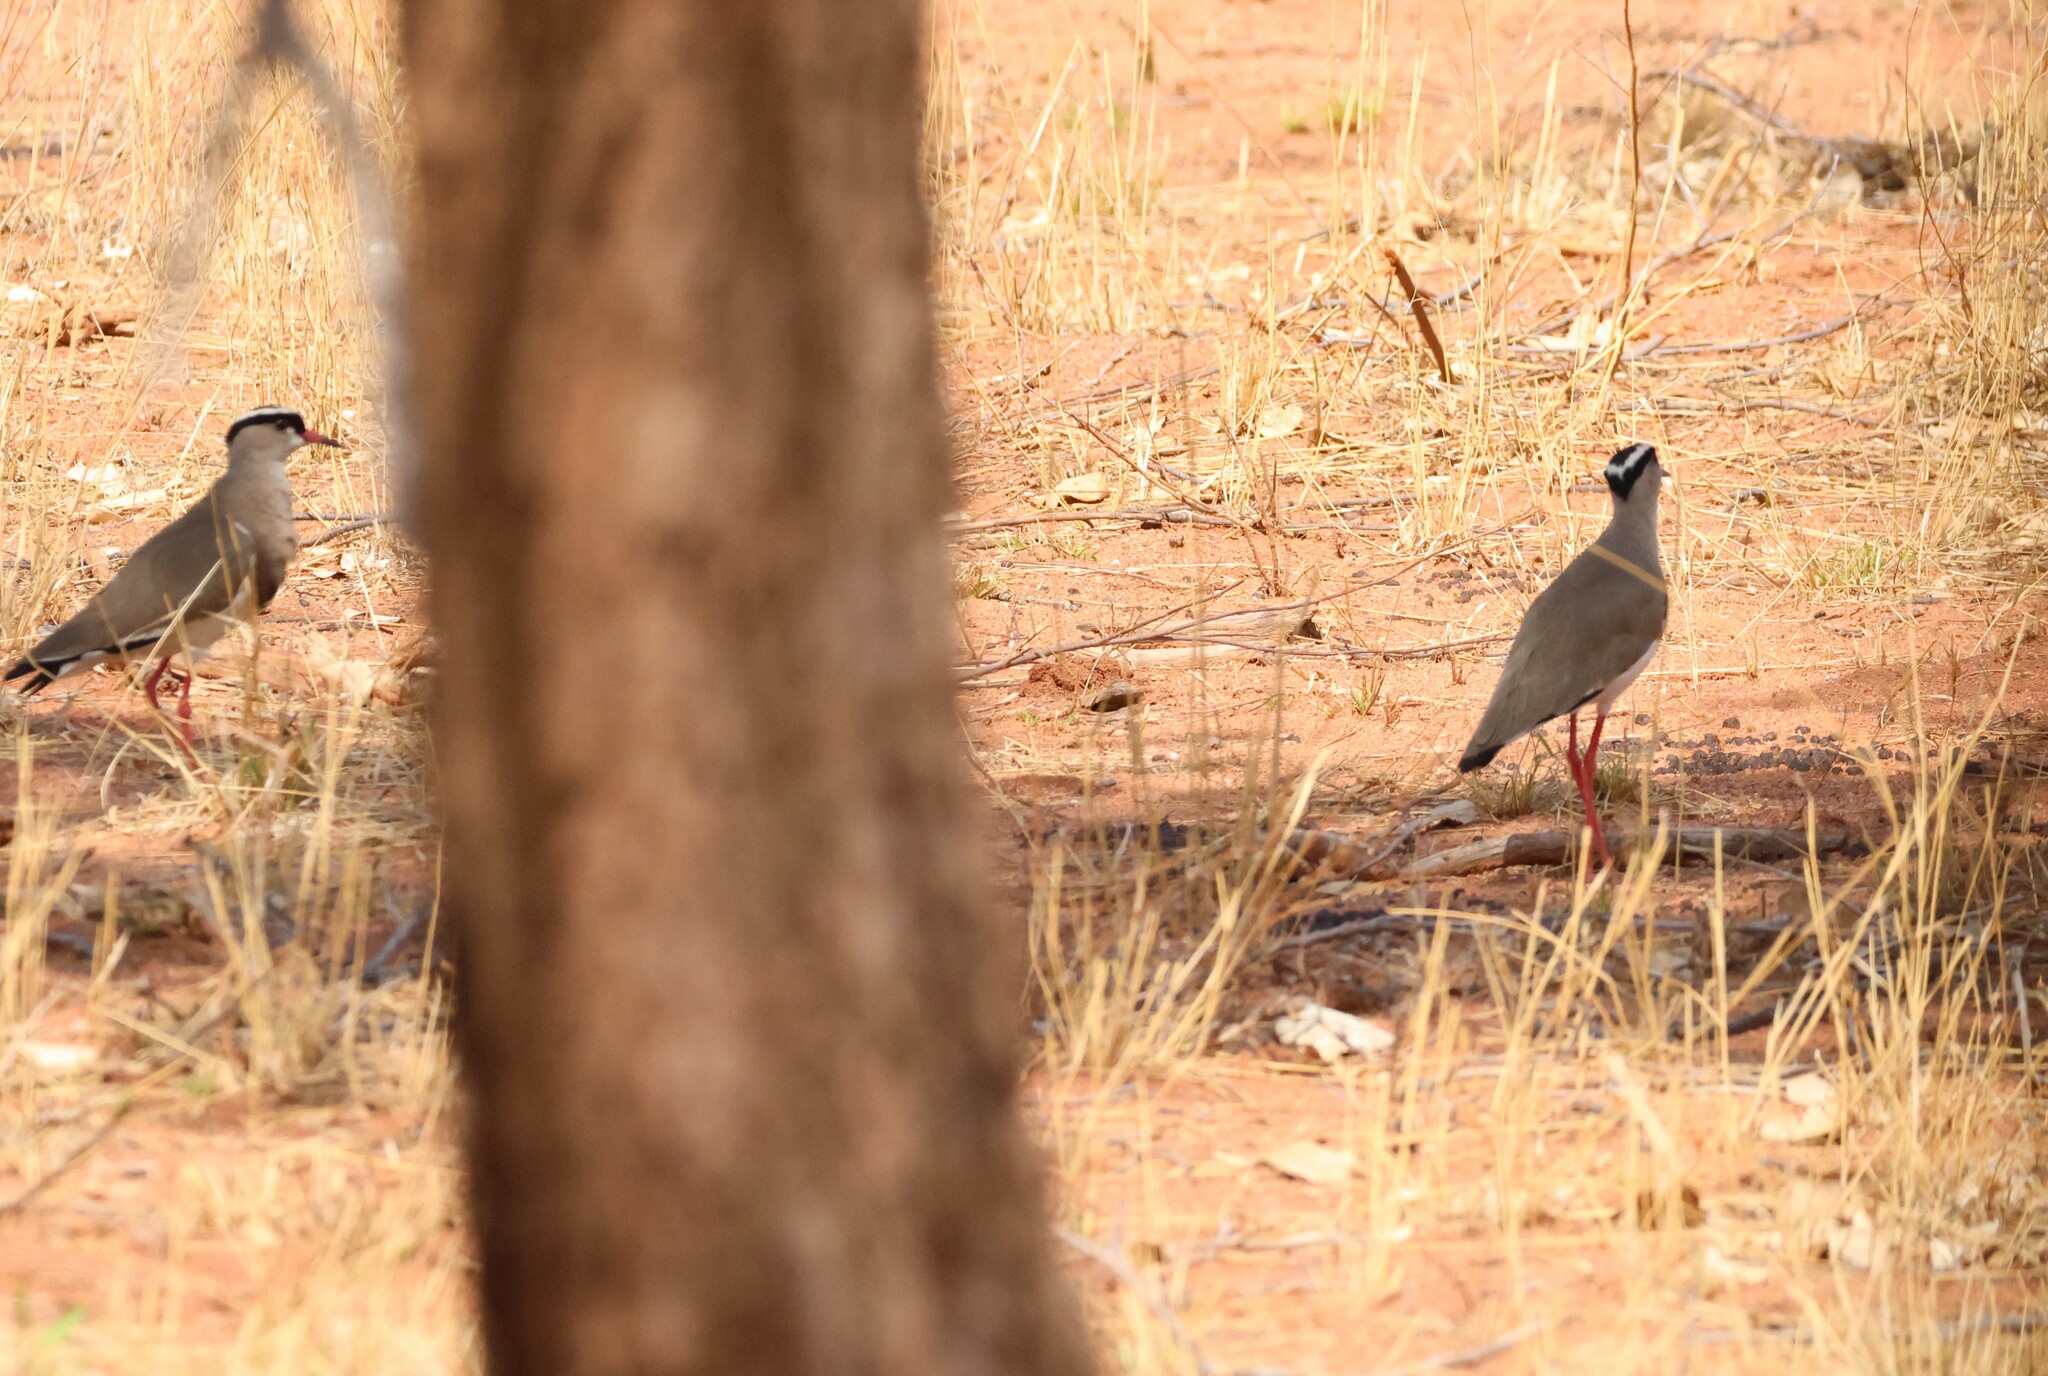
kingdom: Animalia
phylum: Chordata
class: Aves
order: Charadriiformes
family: Charadriidae
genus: Vanellus
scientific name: Vanellus coronatus
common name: Crowned lapwing
